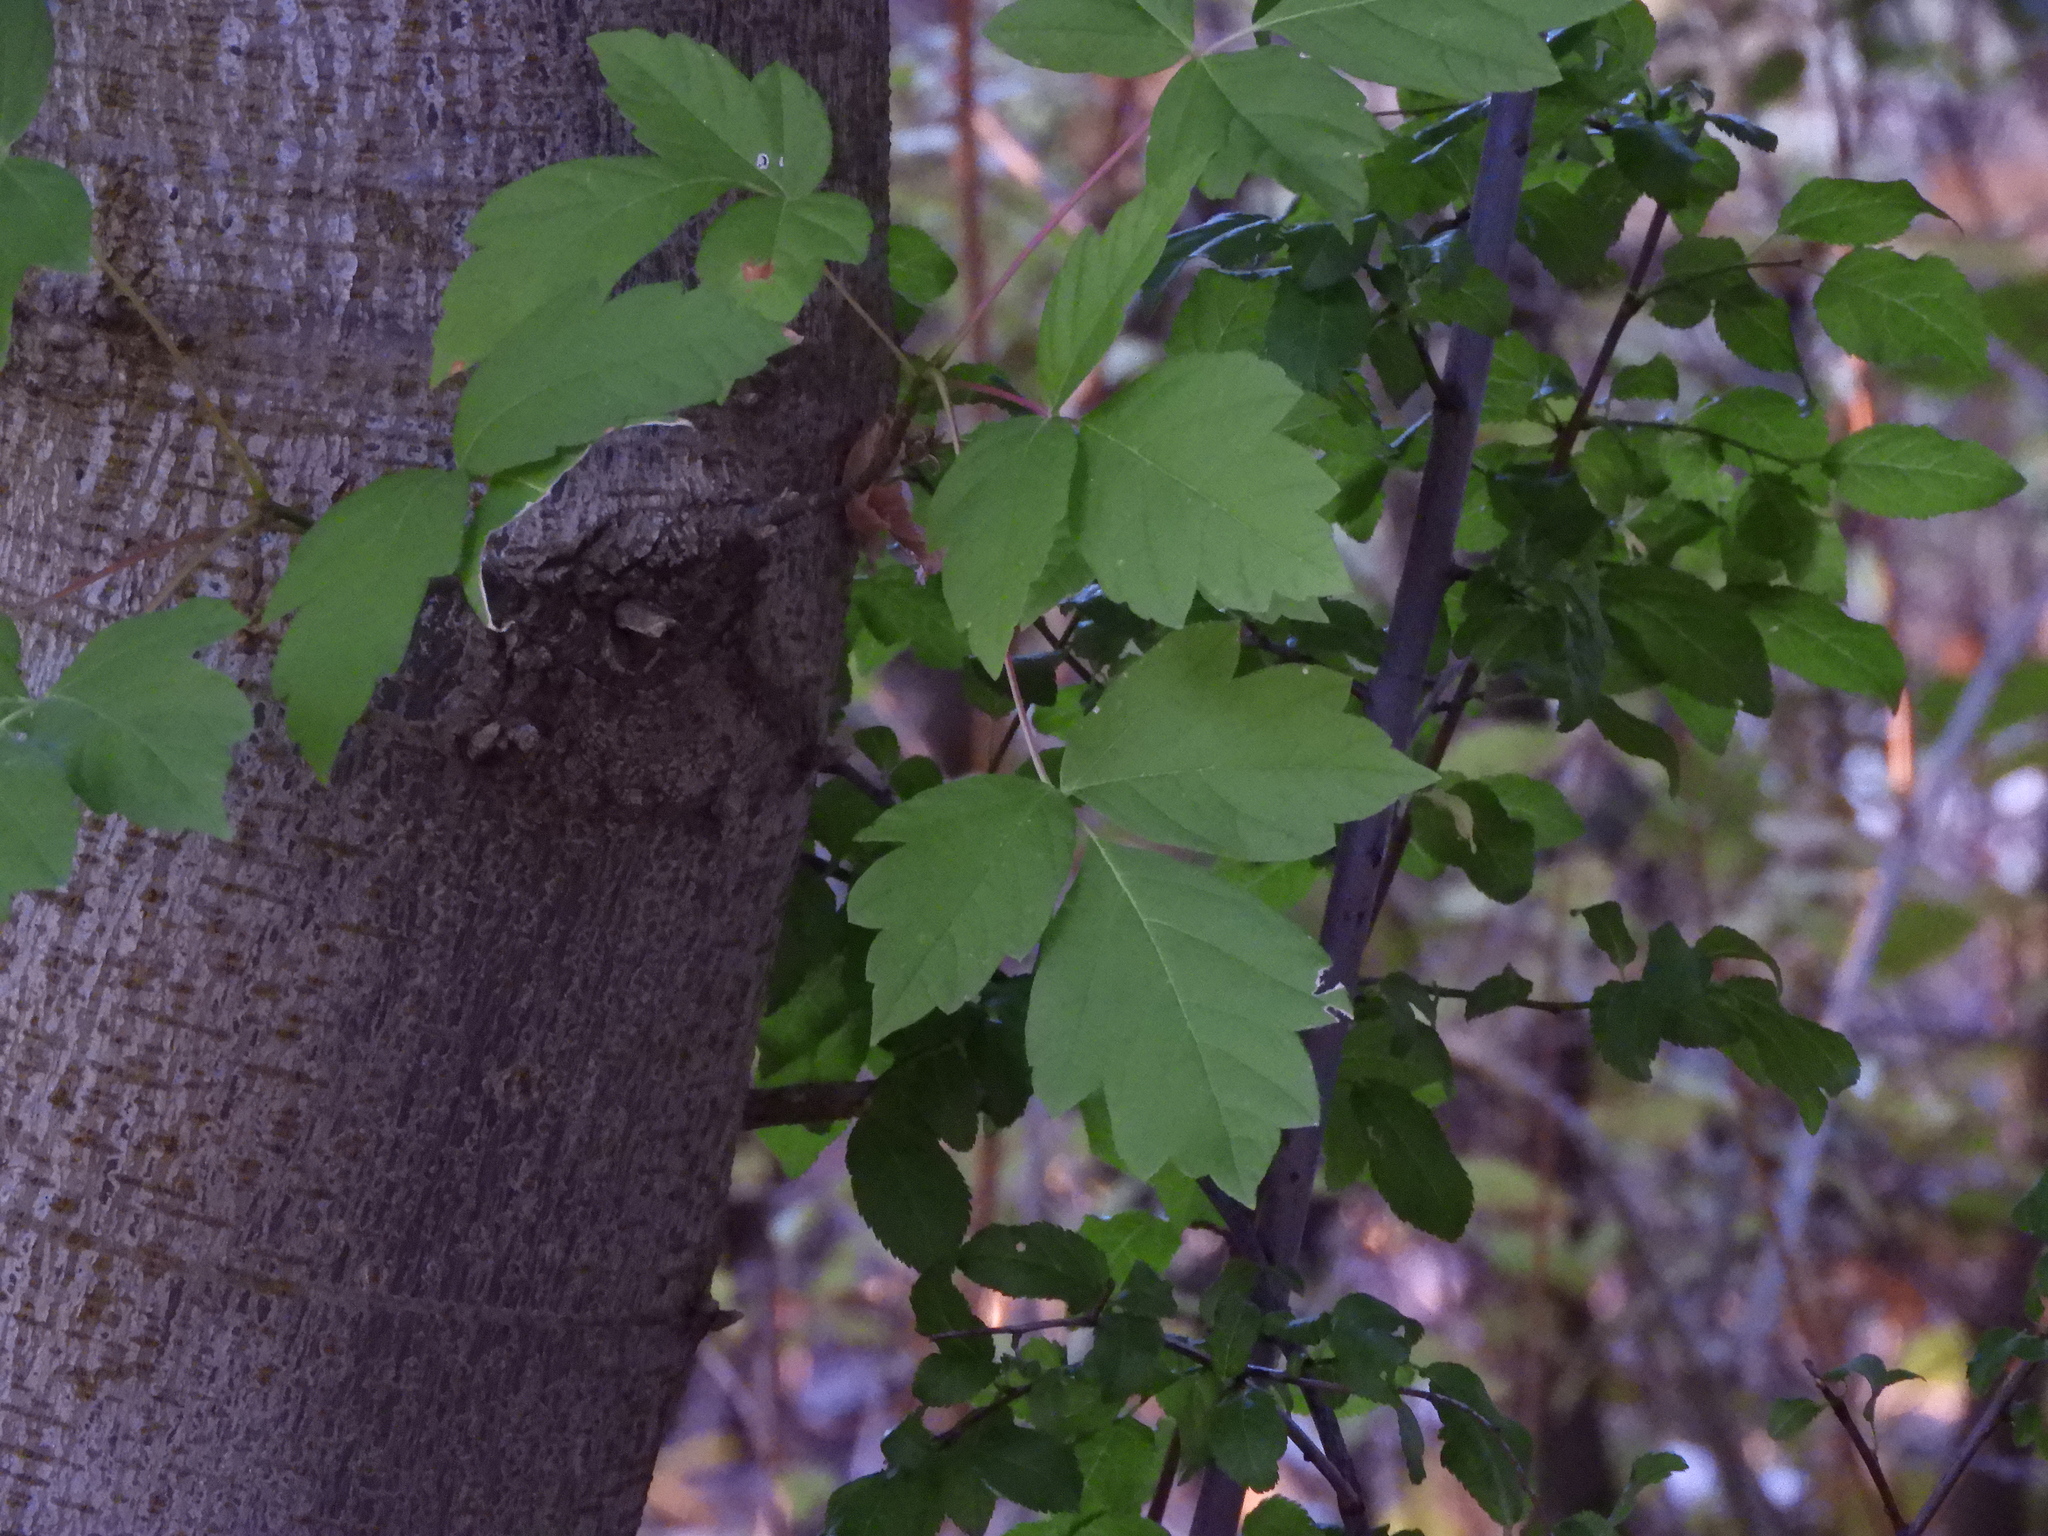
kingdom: Plantae
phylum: Tracheophyta
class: Magnoliopsida
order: Sapindales
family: Sapindaceae
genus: Acer
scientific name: Acer negundo
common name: Ashleaf maple
